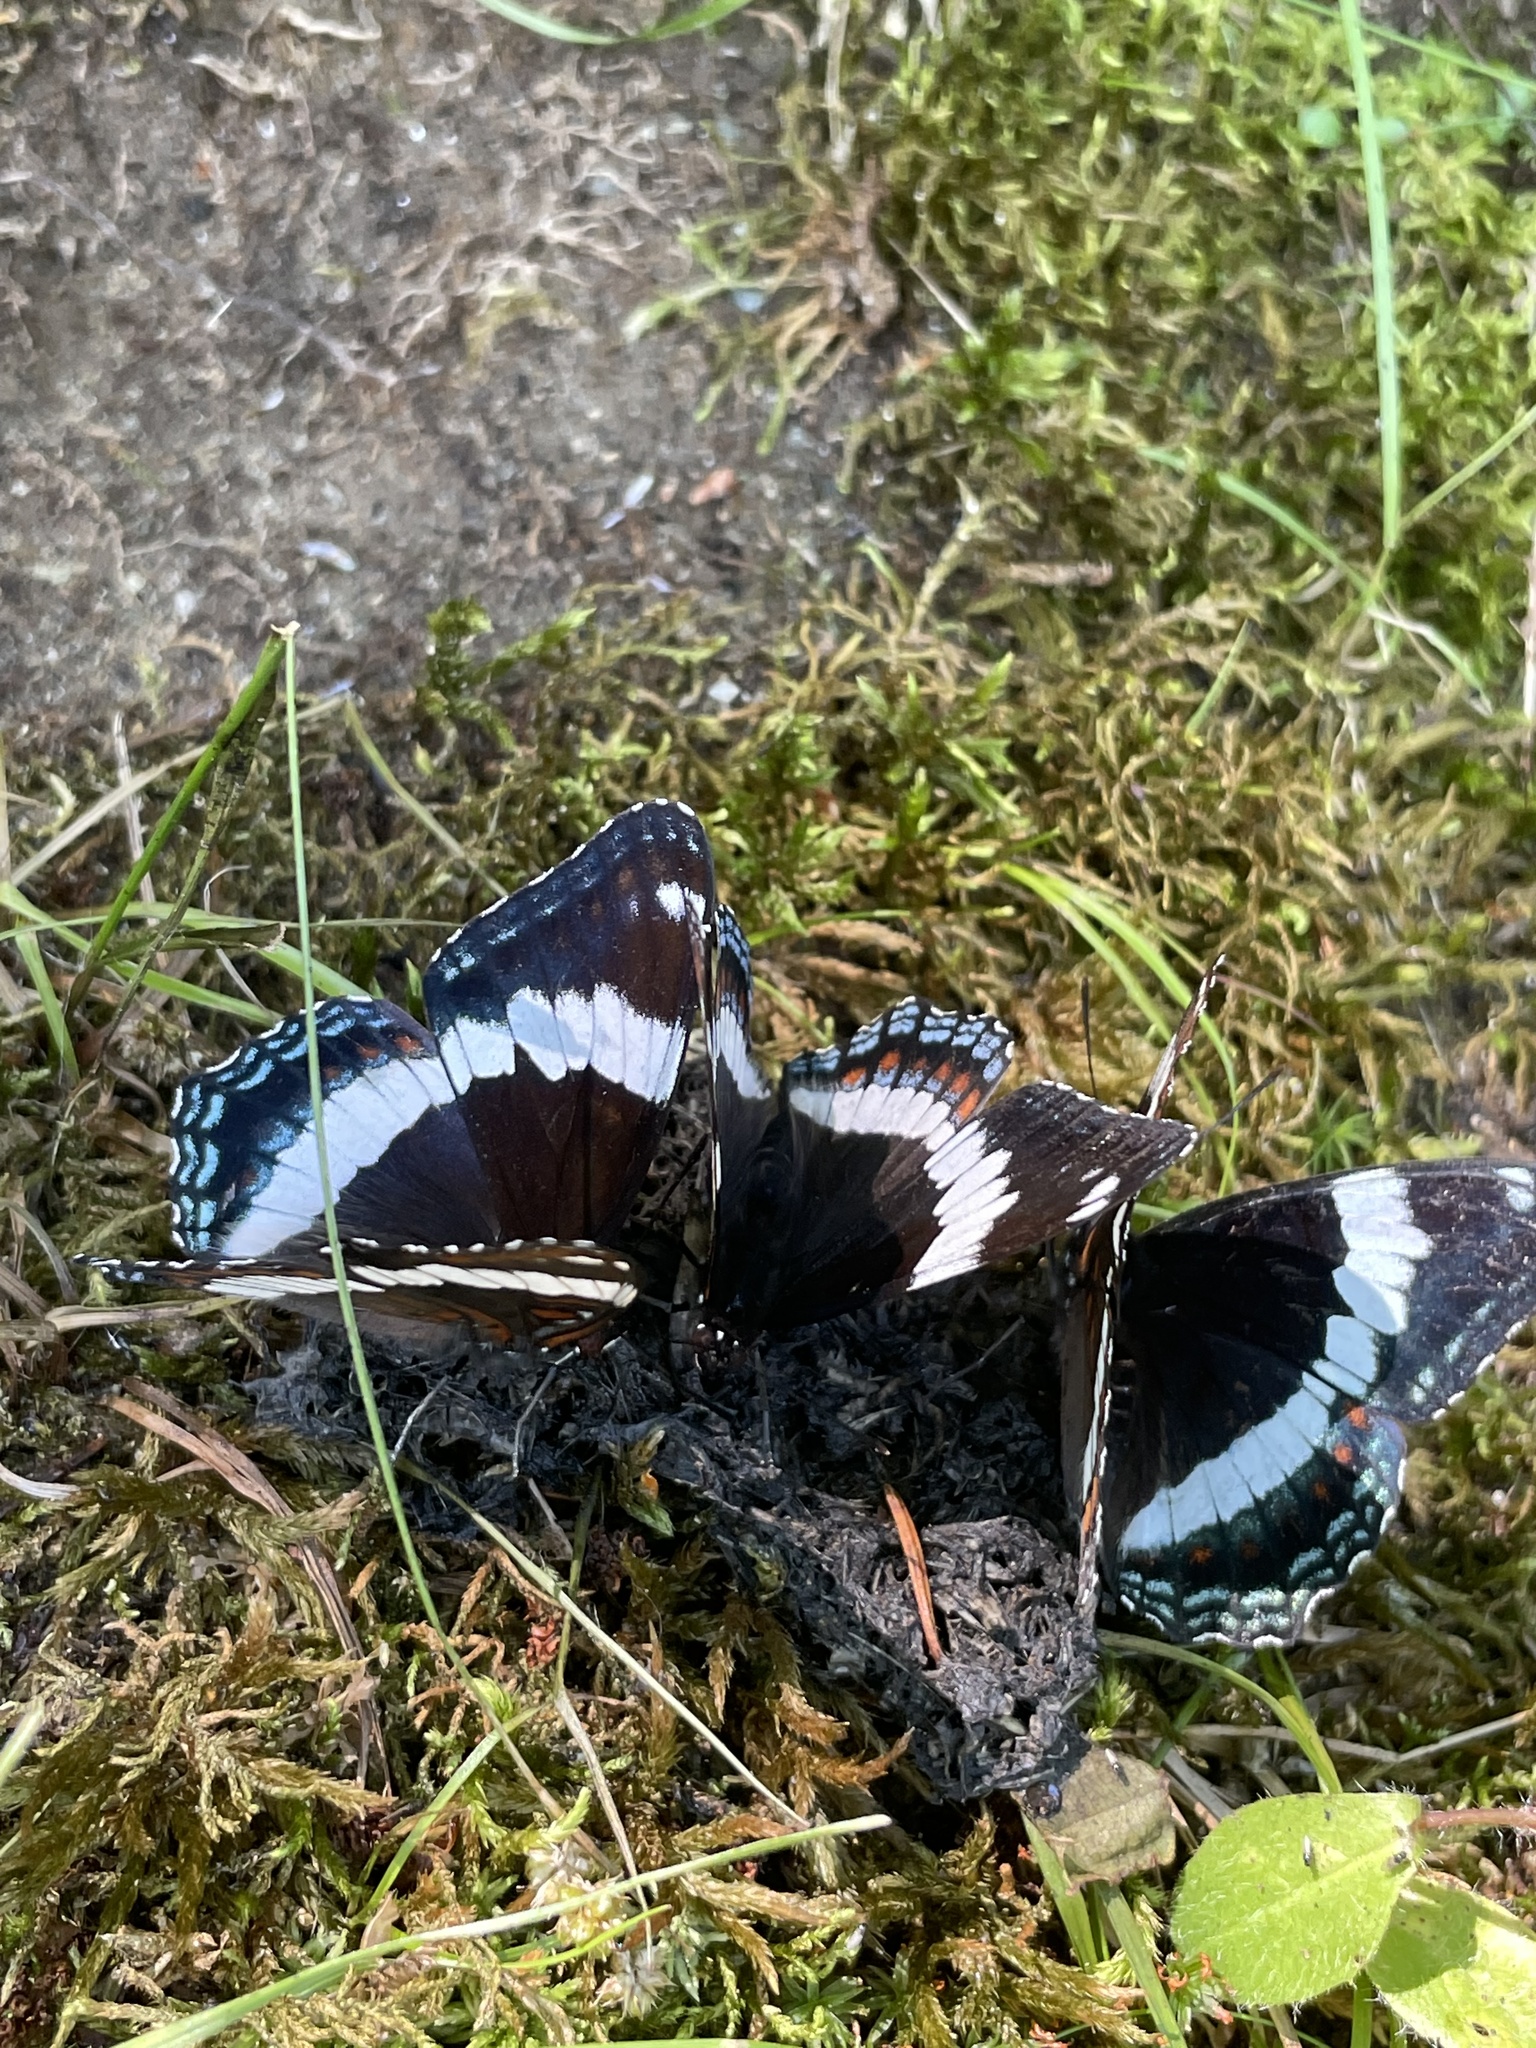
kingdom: Animalia
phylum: Arthropoda
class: Insecta
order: Lepidoptera
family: Nymphalidae
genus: Limenitis
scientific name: Limenitis arthemis
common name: Red-spotted admiral
